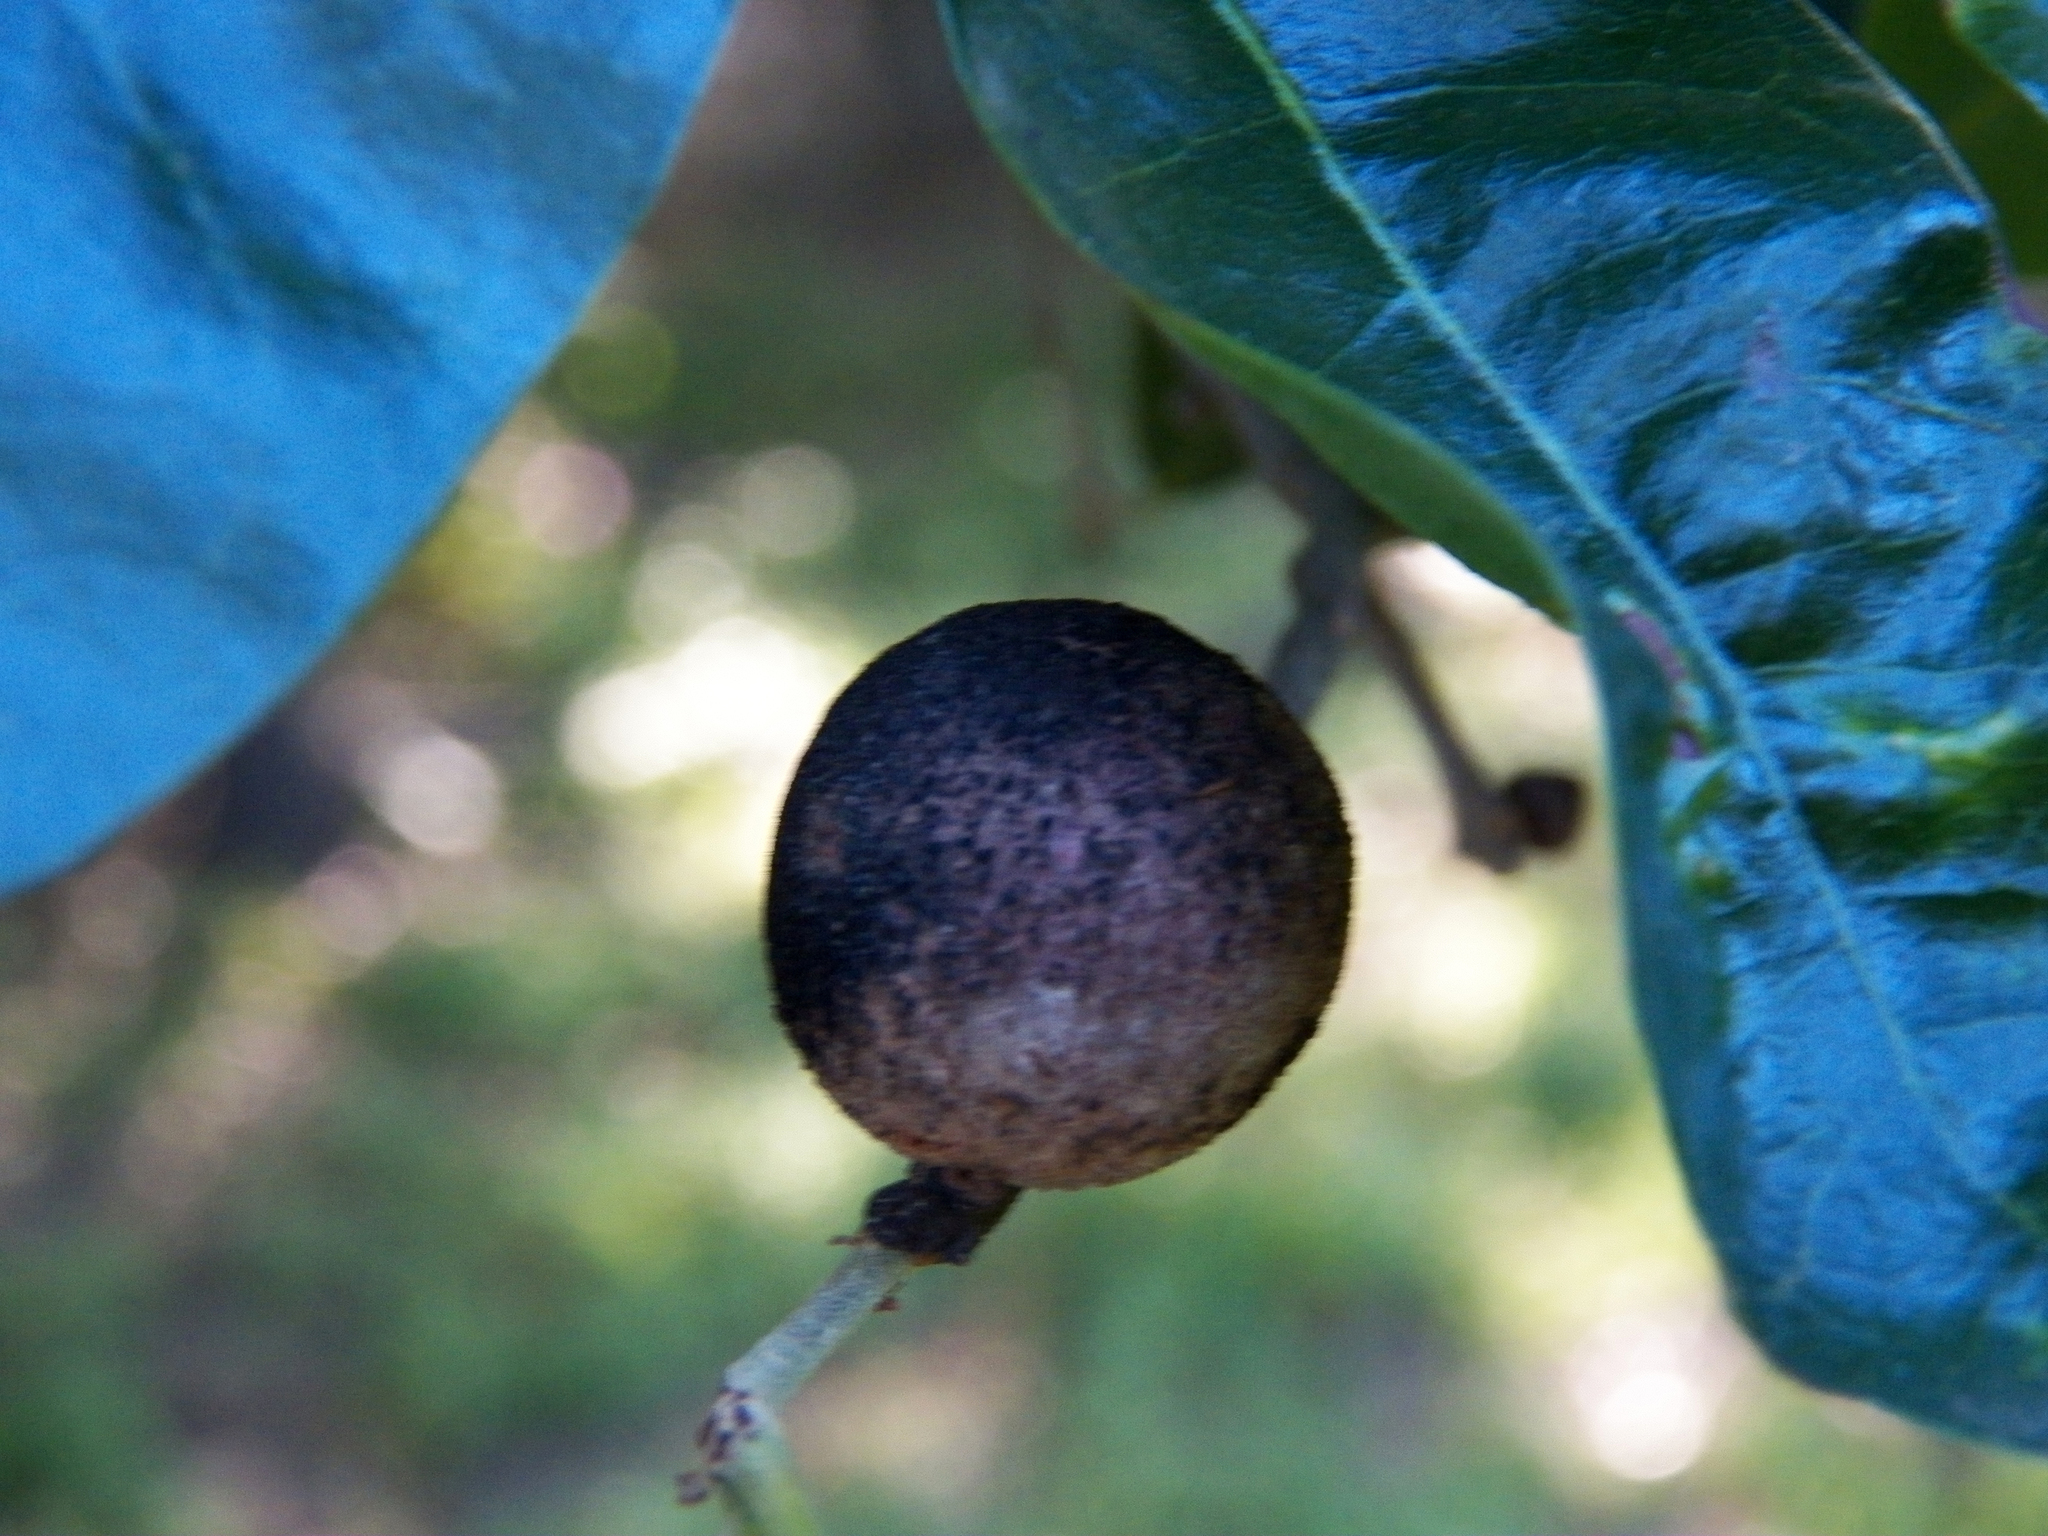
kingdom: Animalia
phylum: Arthropoda
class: Insecta
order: Hymenoptera
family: Cynipidae
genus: Disholcaspis
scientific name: Disholcaspis
